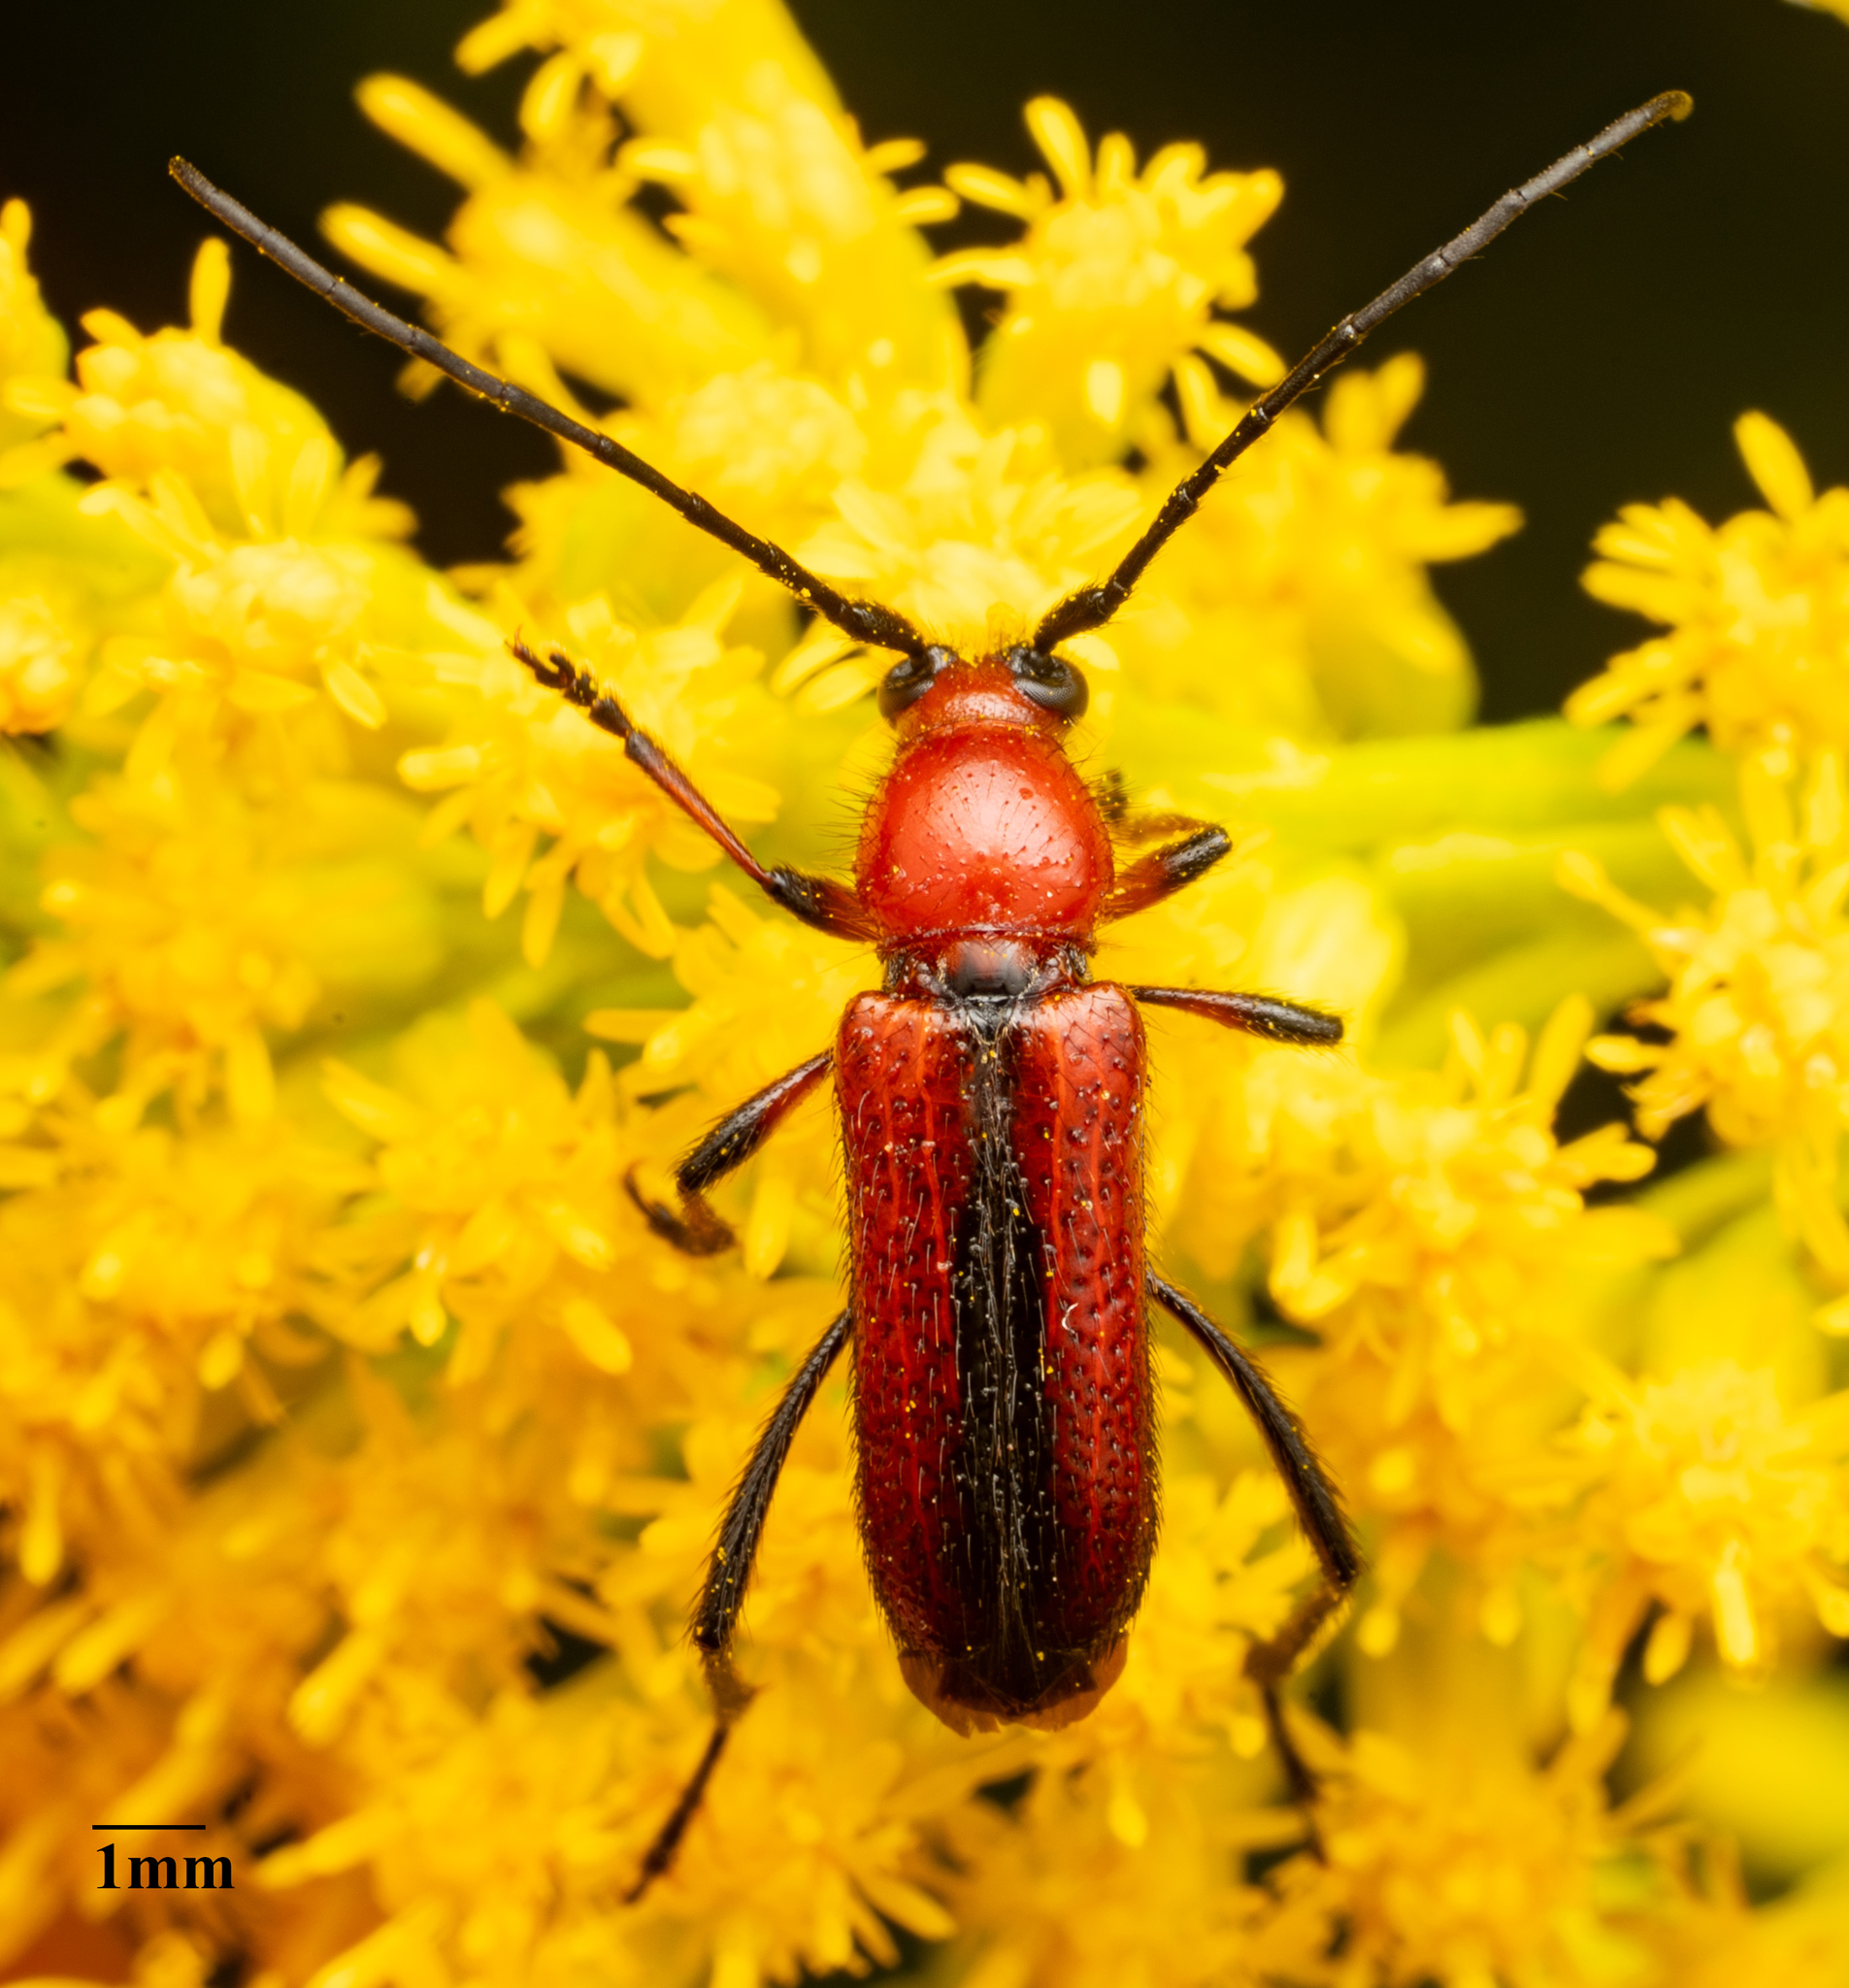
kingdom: Animalia
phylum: Arthropoda
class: Insecta
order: Coleoptera
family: Cerambycidae
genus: Batyle
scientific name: Batyle suturalis
